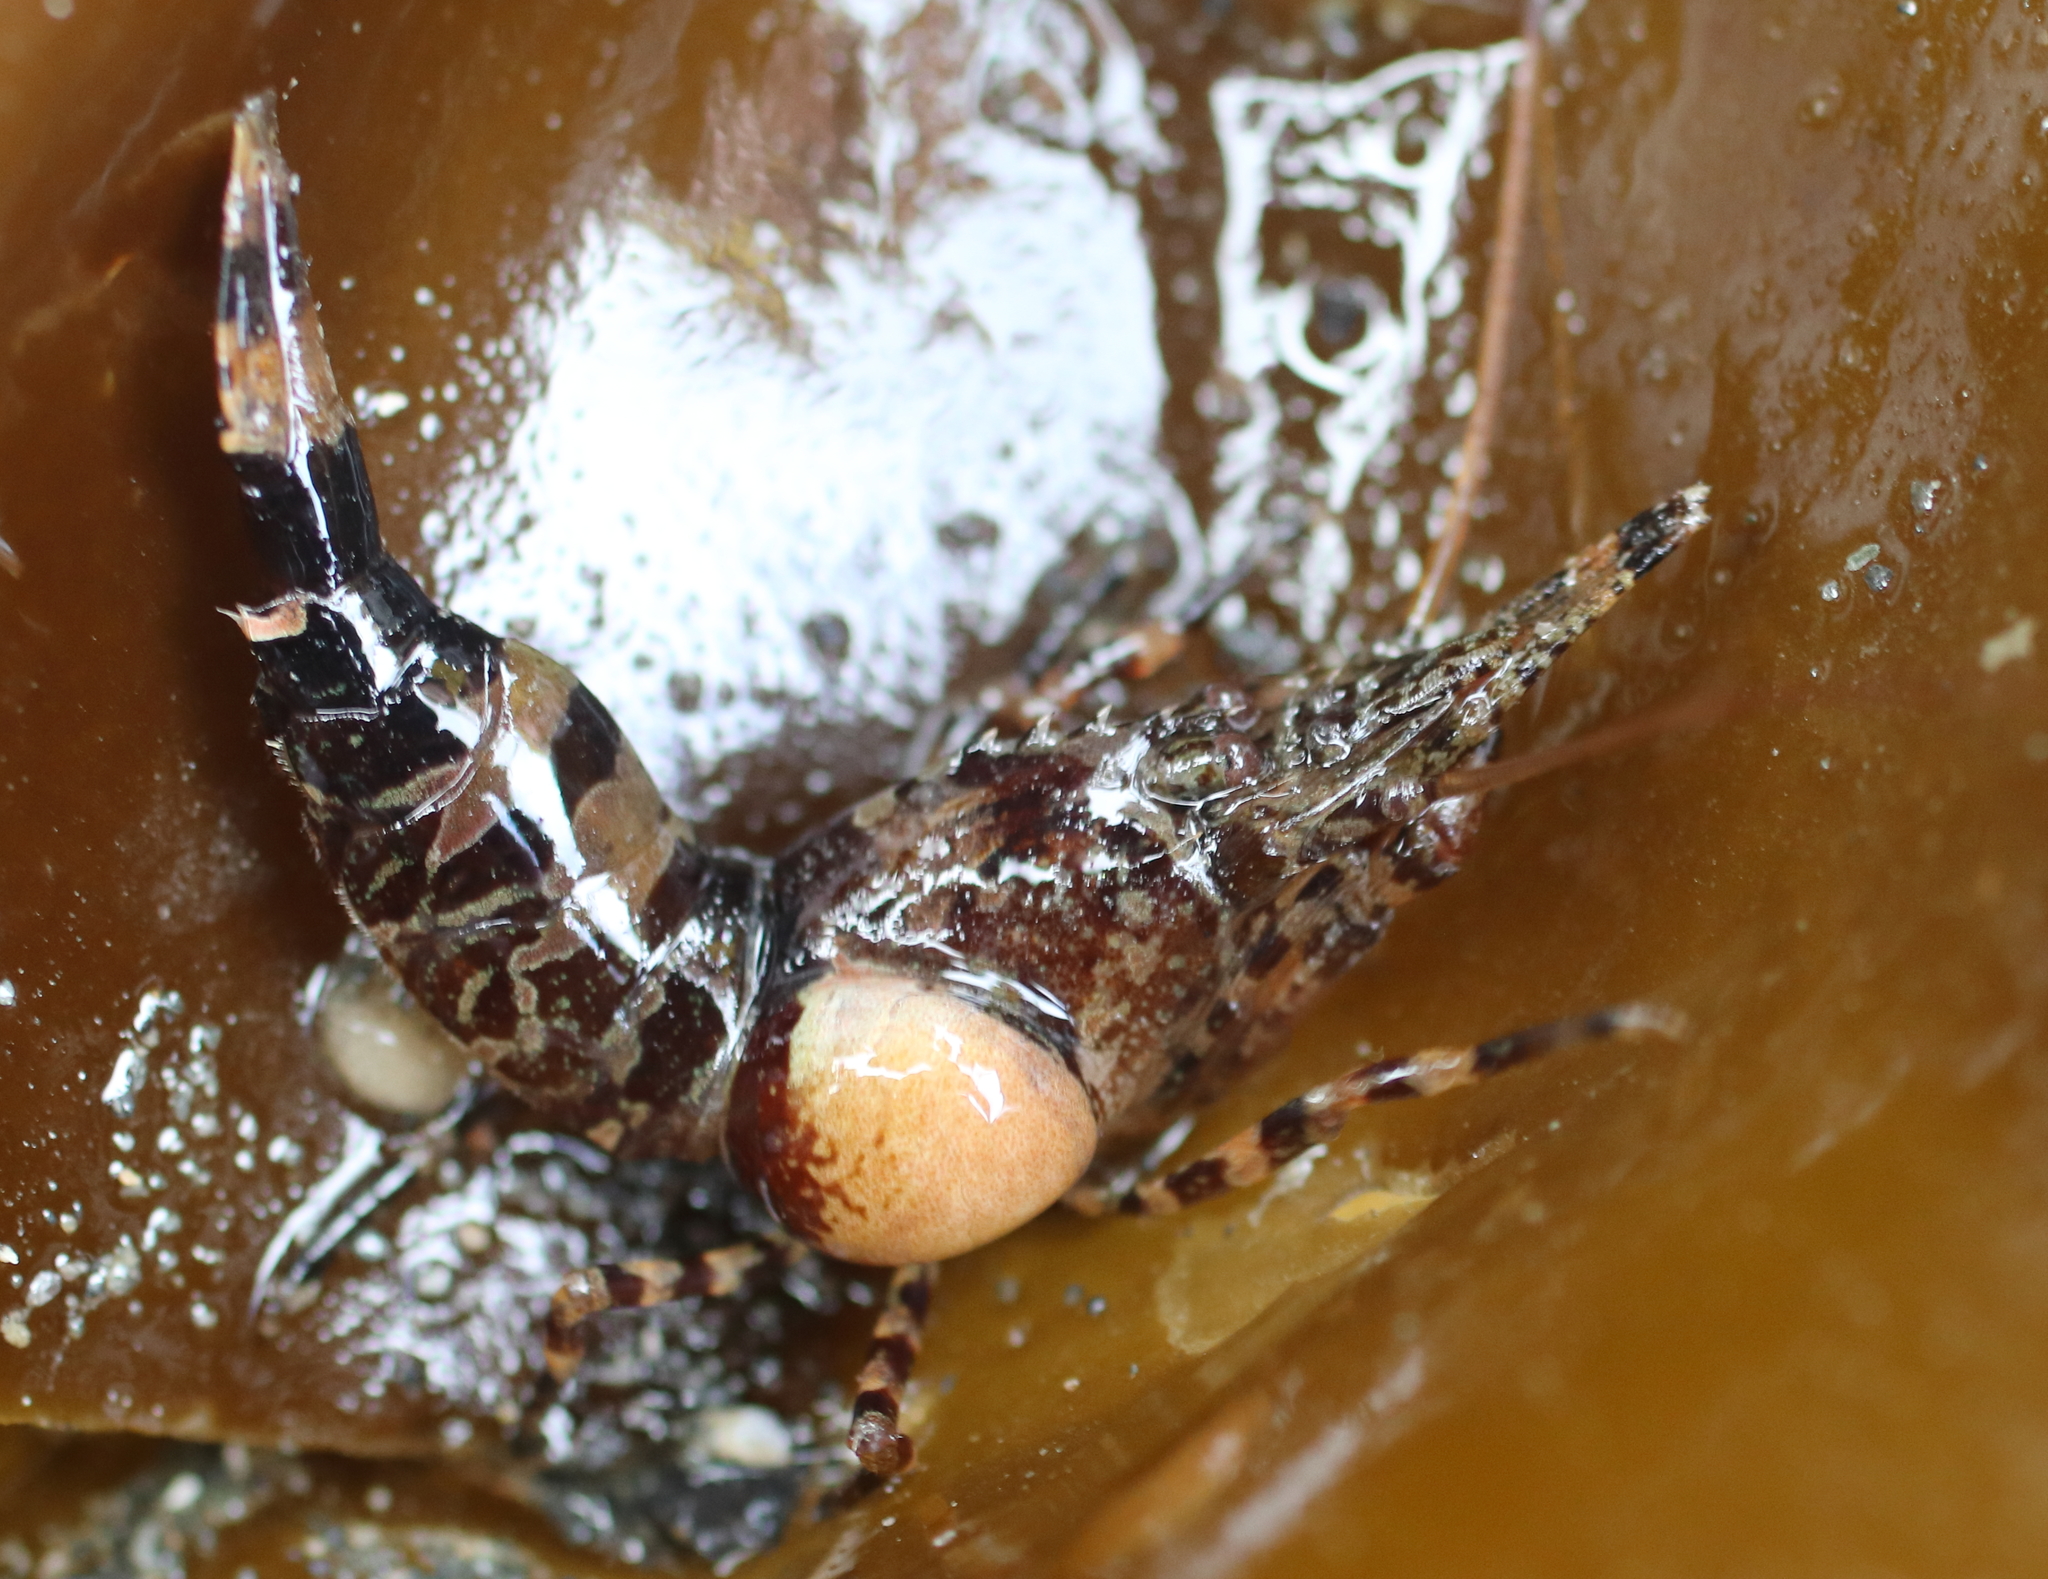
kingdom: Animalia
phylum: Arthropoda
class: Malacostraca
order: Isopoda
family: Bopyridae
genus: Bopyroides
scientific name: Bopyroides hippolytes
